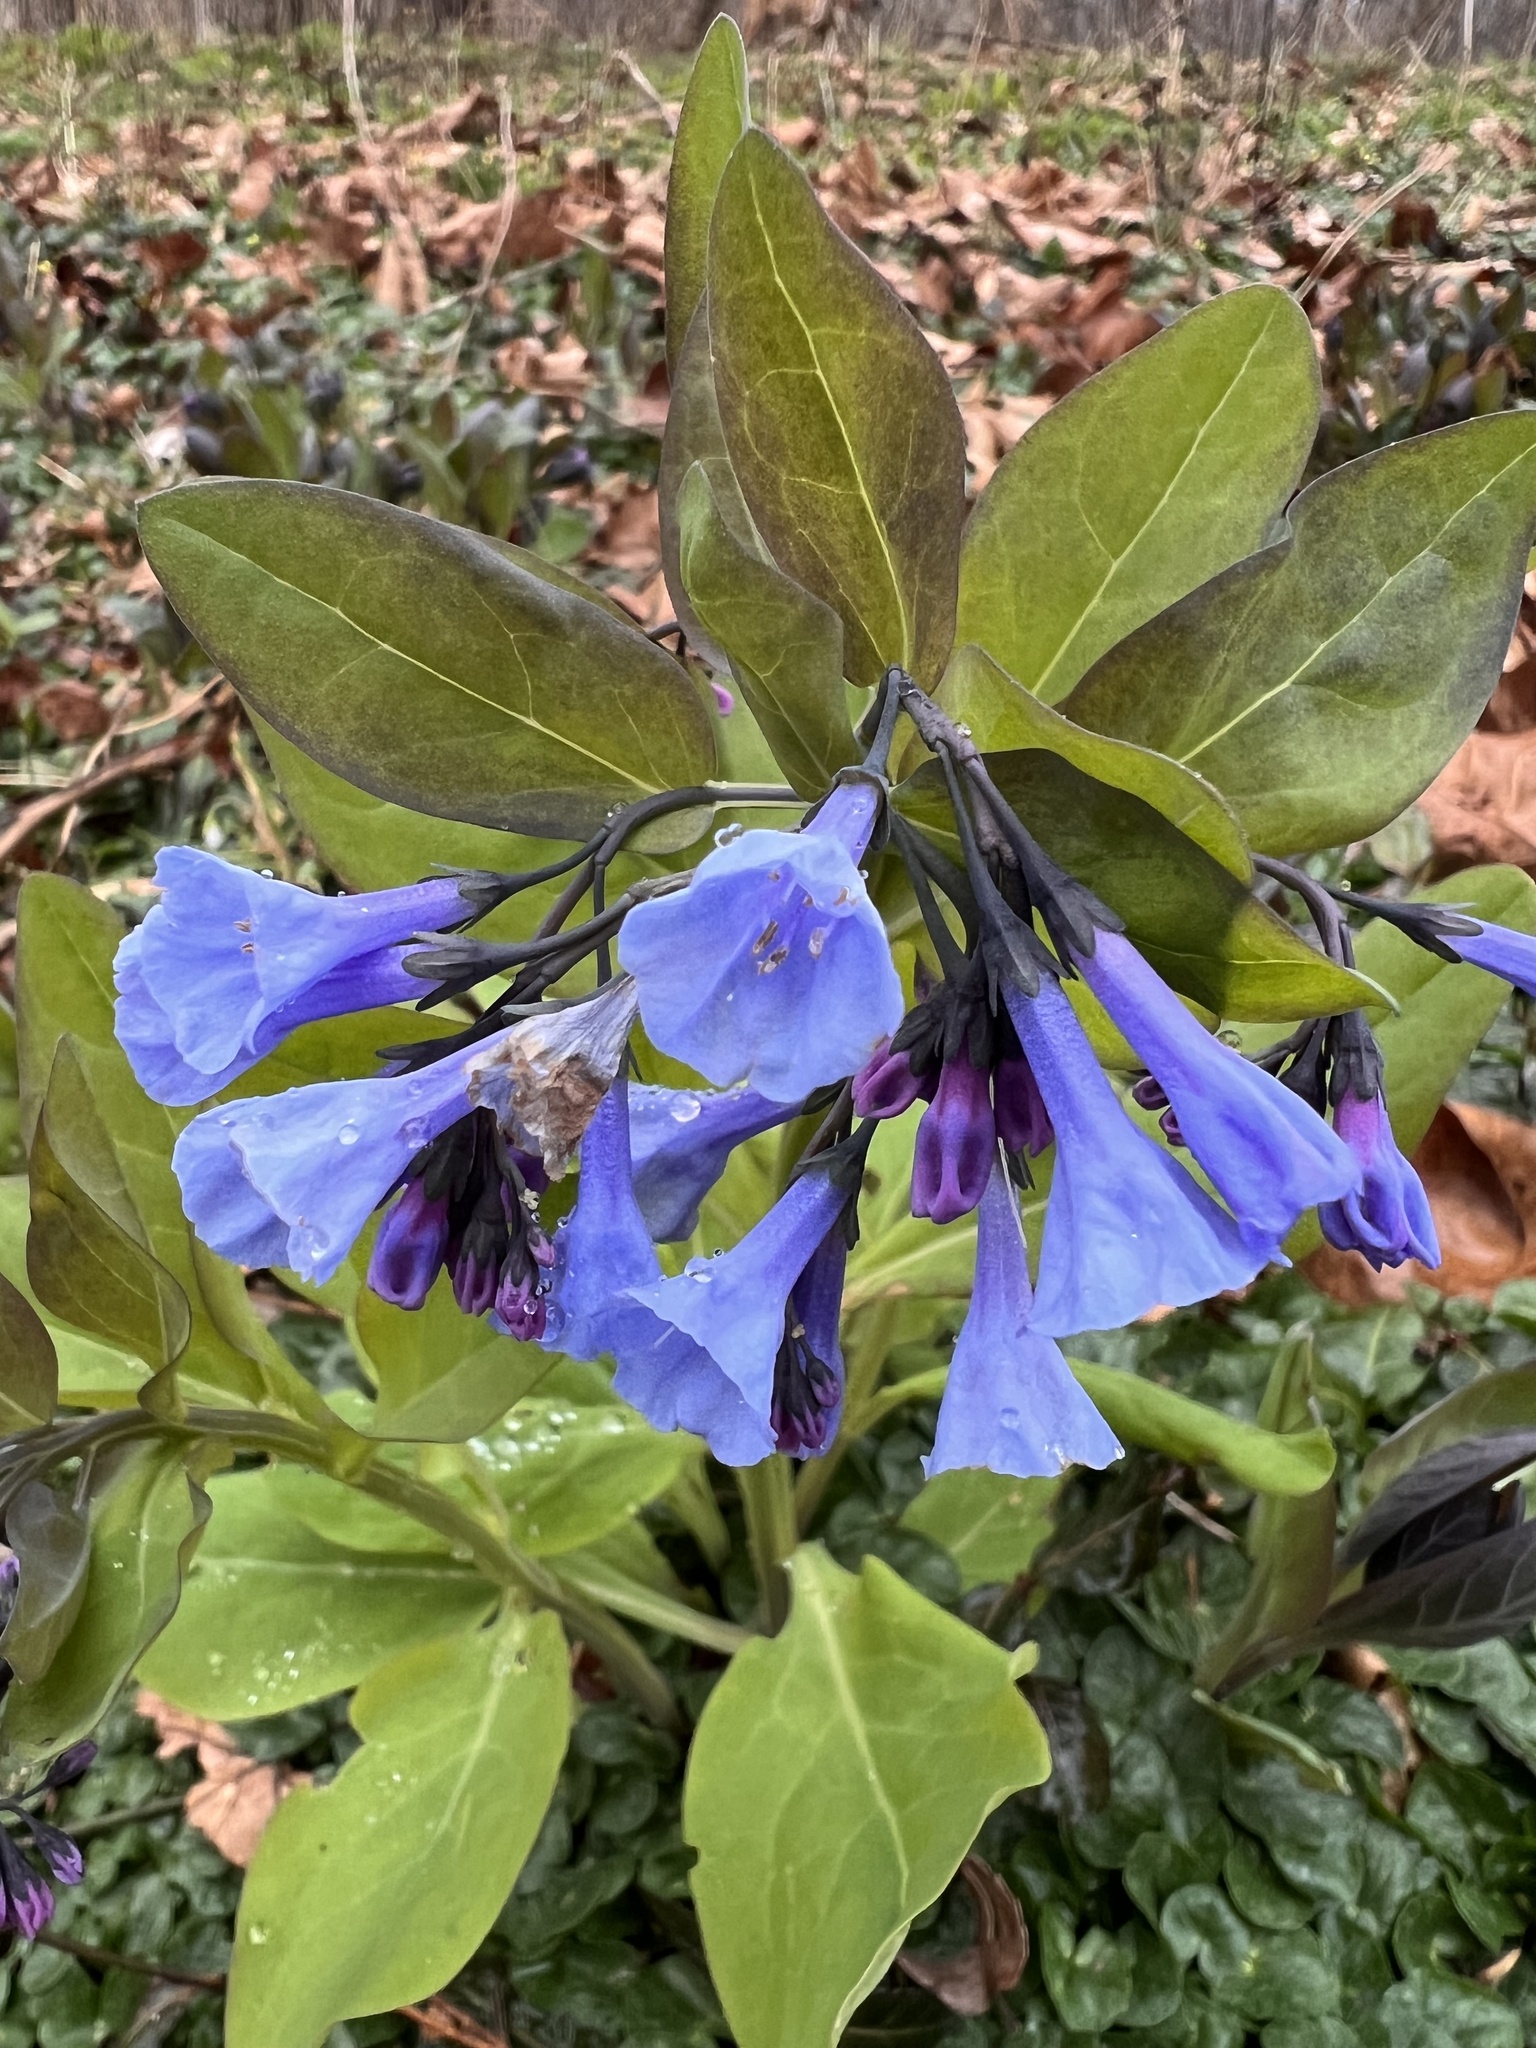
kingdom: Plantae
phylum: Tracheophyta
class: Magnoliopsida
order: Boraginales
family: Boraginaceae
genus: Mertensia
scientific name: Mertensia virginica
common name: Virginia bluebells
